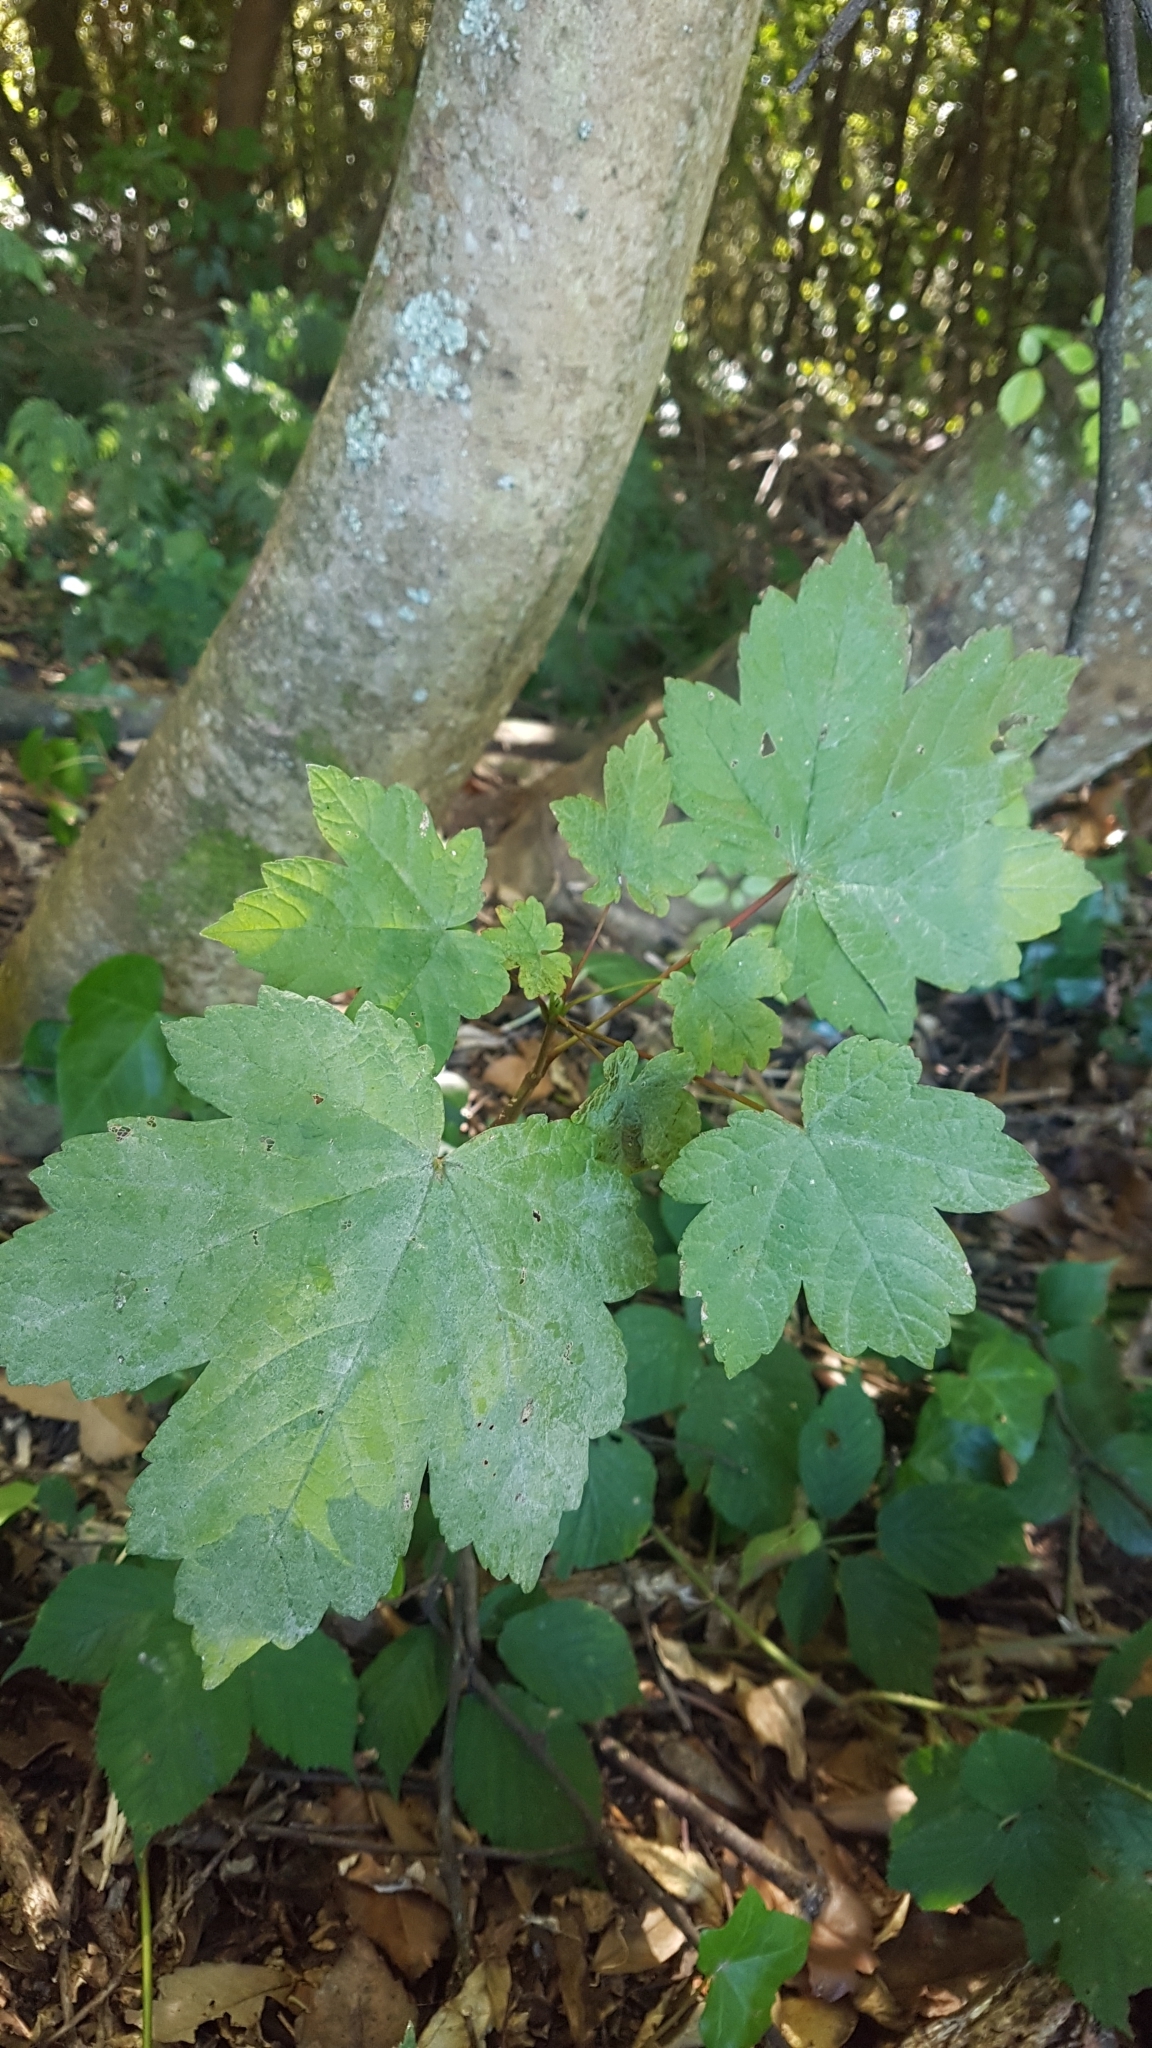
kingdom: Plantae
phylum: Tracheophyta
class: Magnoliopsida
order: Sapindales
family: Sapindaceae
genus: Acer
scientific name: Acer pseudoplatanus
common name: Sycamore
